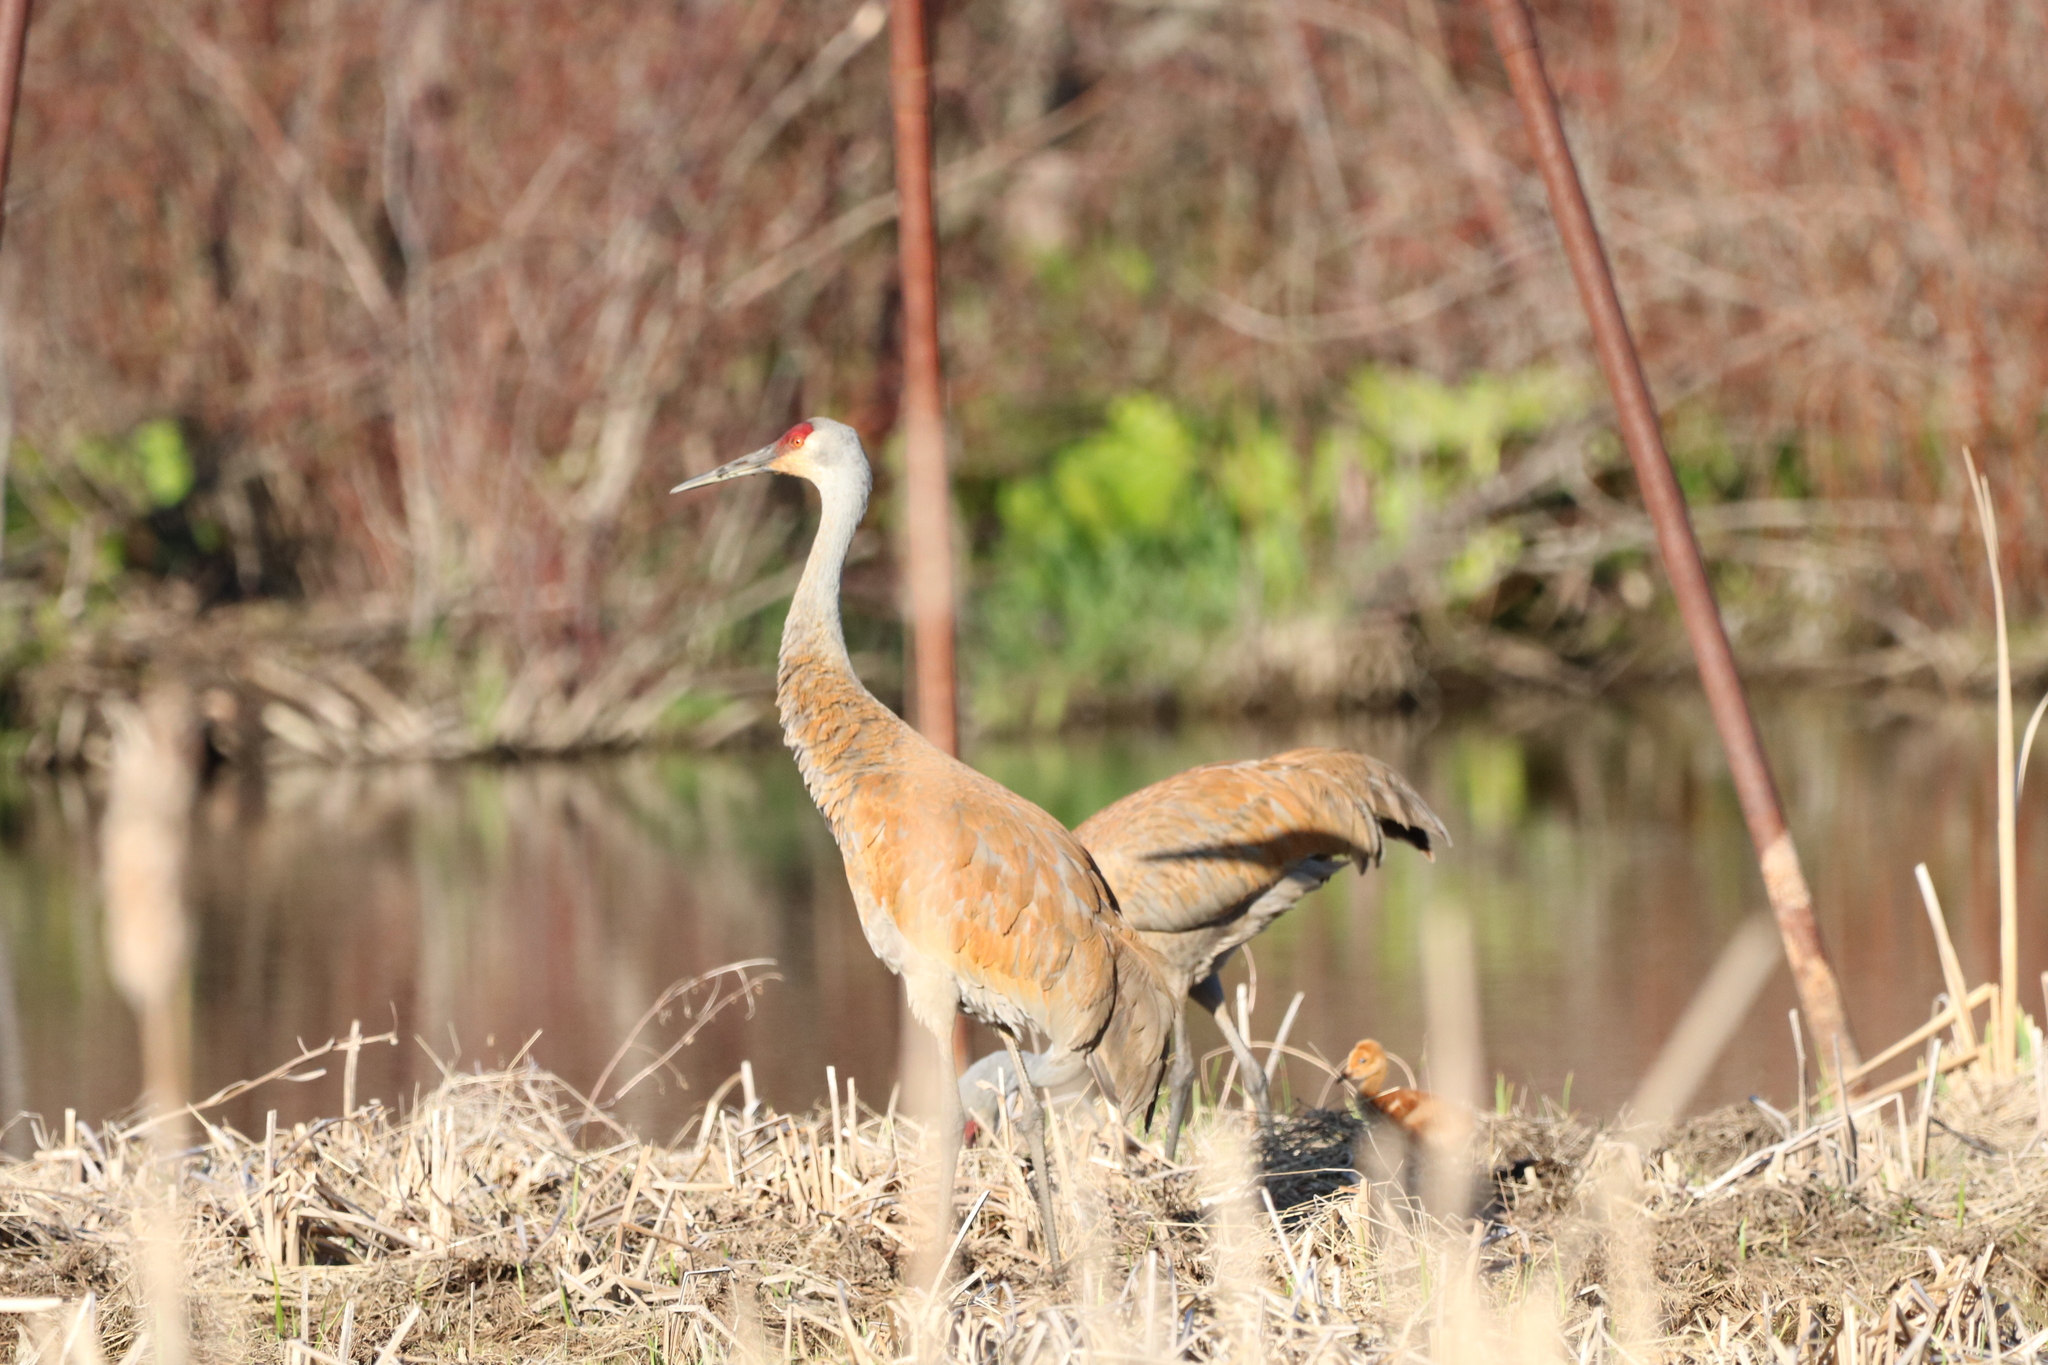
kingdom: Animalia
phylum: Chordata
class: Aves
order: Gruiformes
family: Gruidae
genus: Grus
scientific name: Grus canadensis
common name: Sandhill crane
